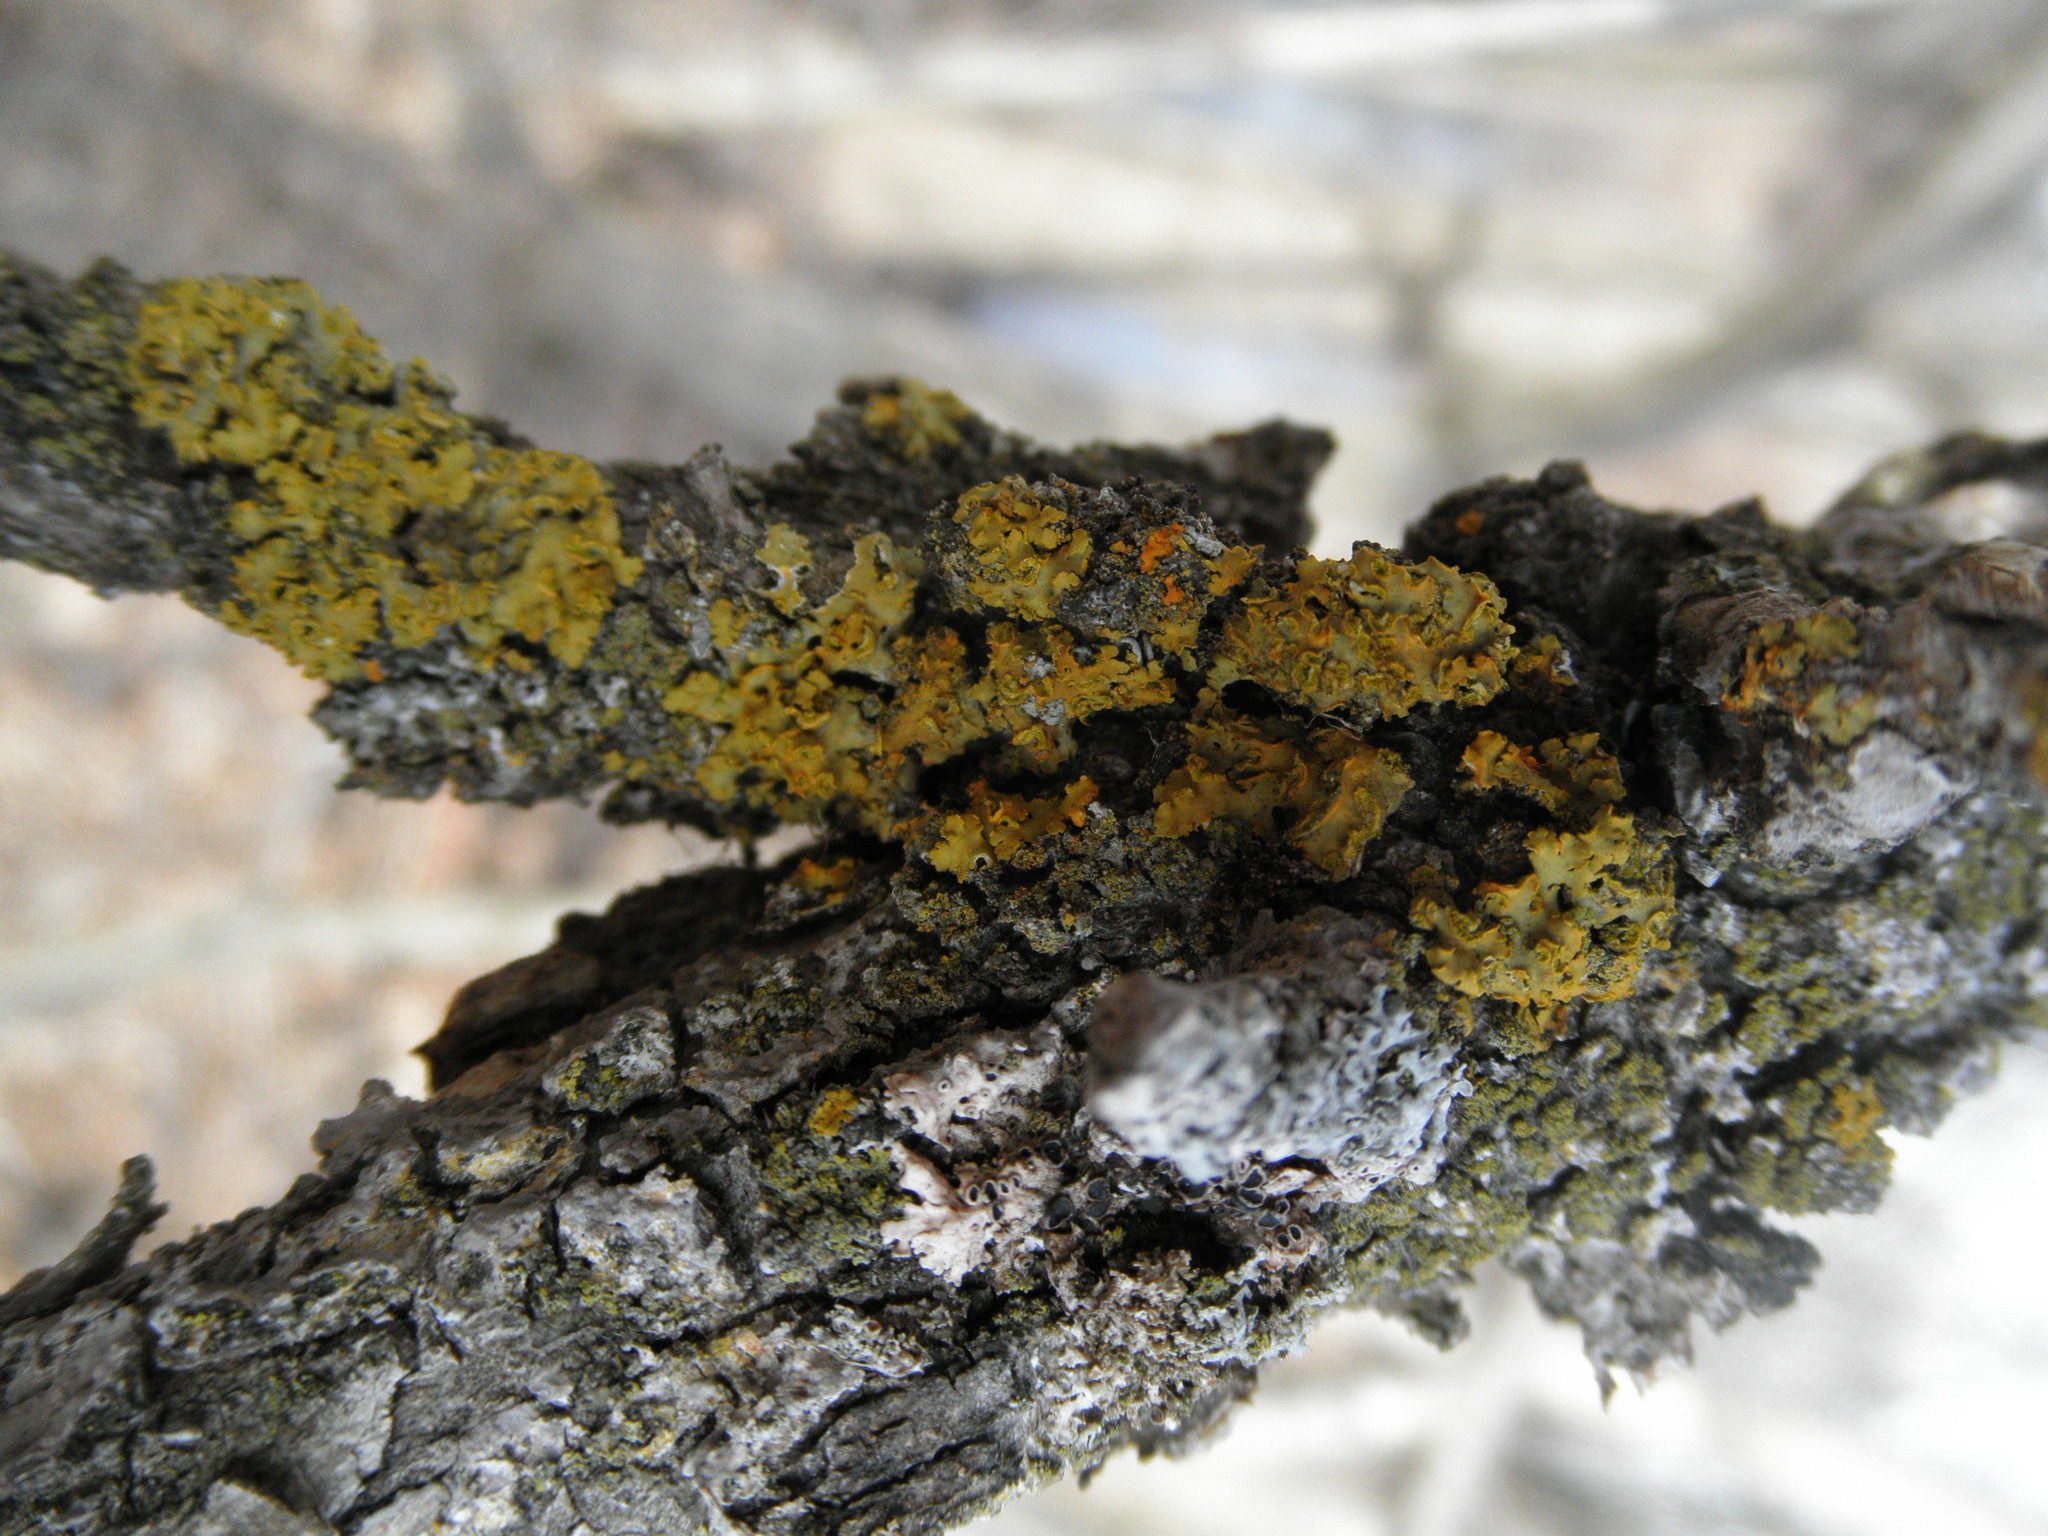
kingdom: Fungi
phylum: Ascomycota
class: Lecanoromycetes
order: Teloschistales
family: Teloschistaceae
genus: Oxneria
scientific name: Oxneria fallax
